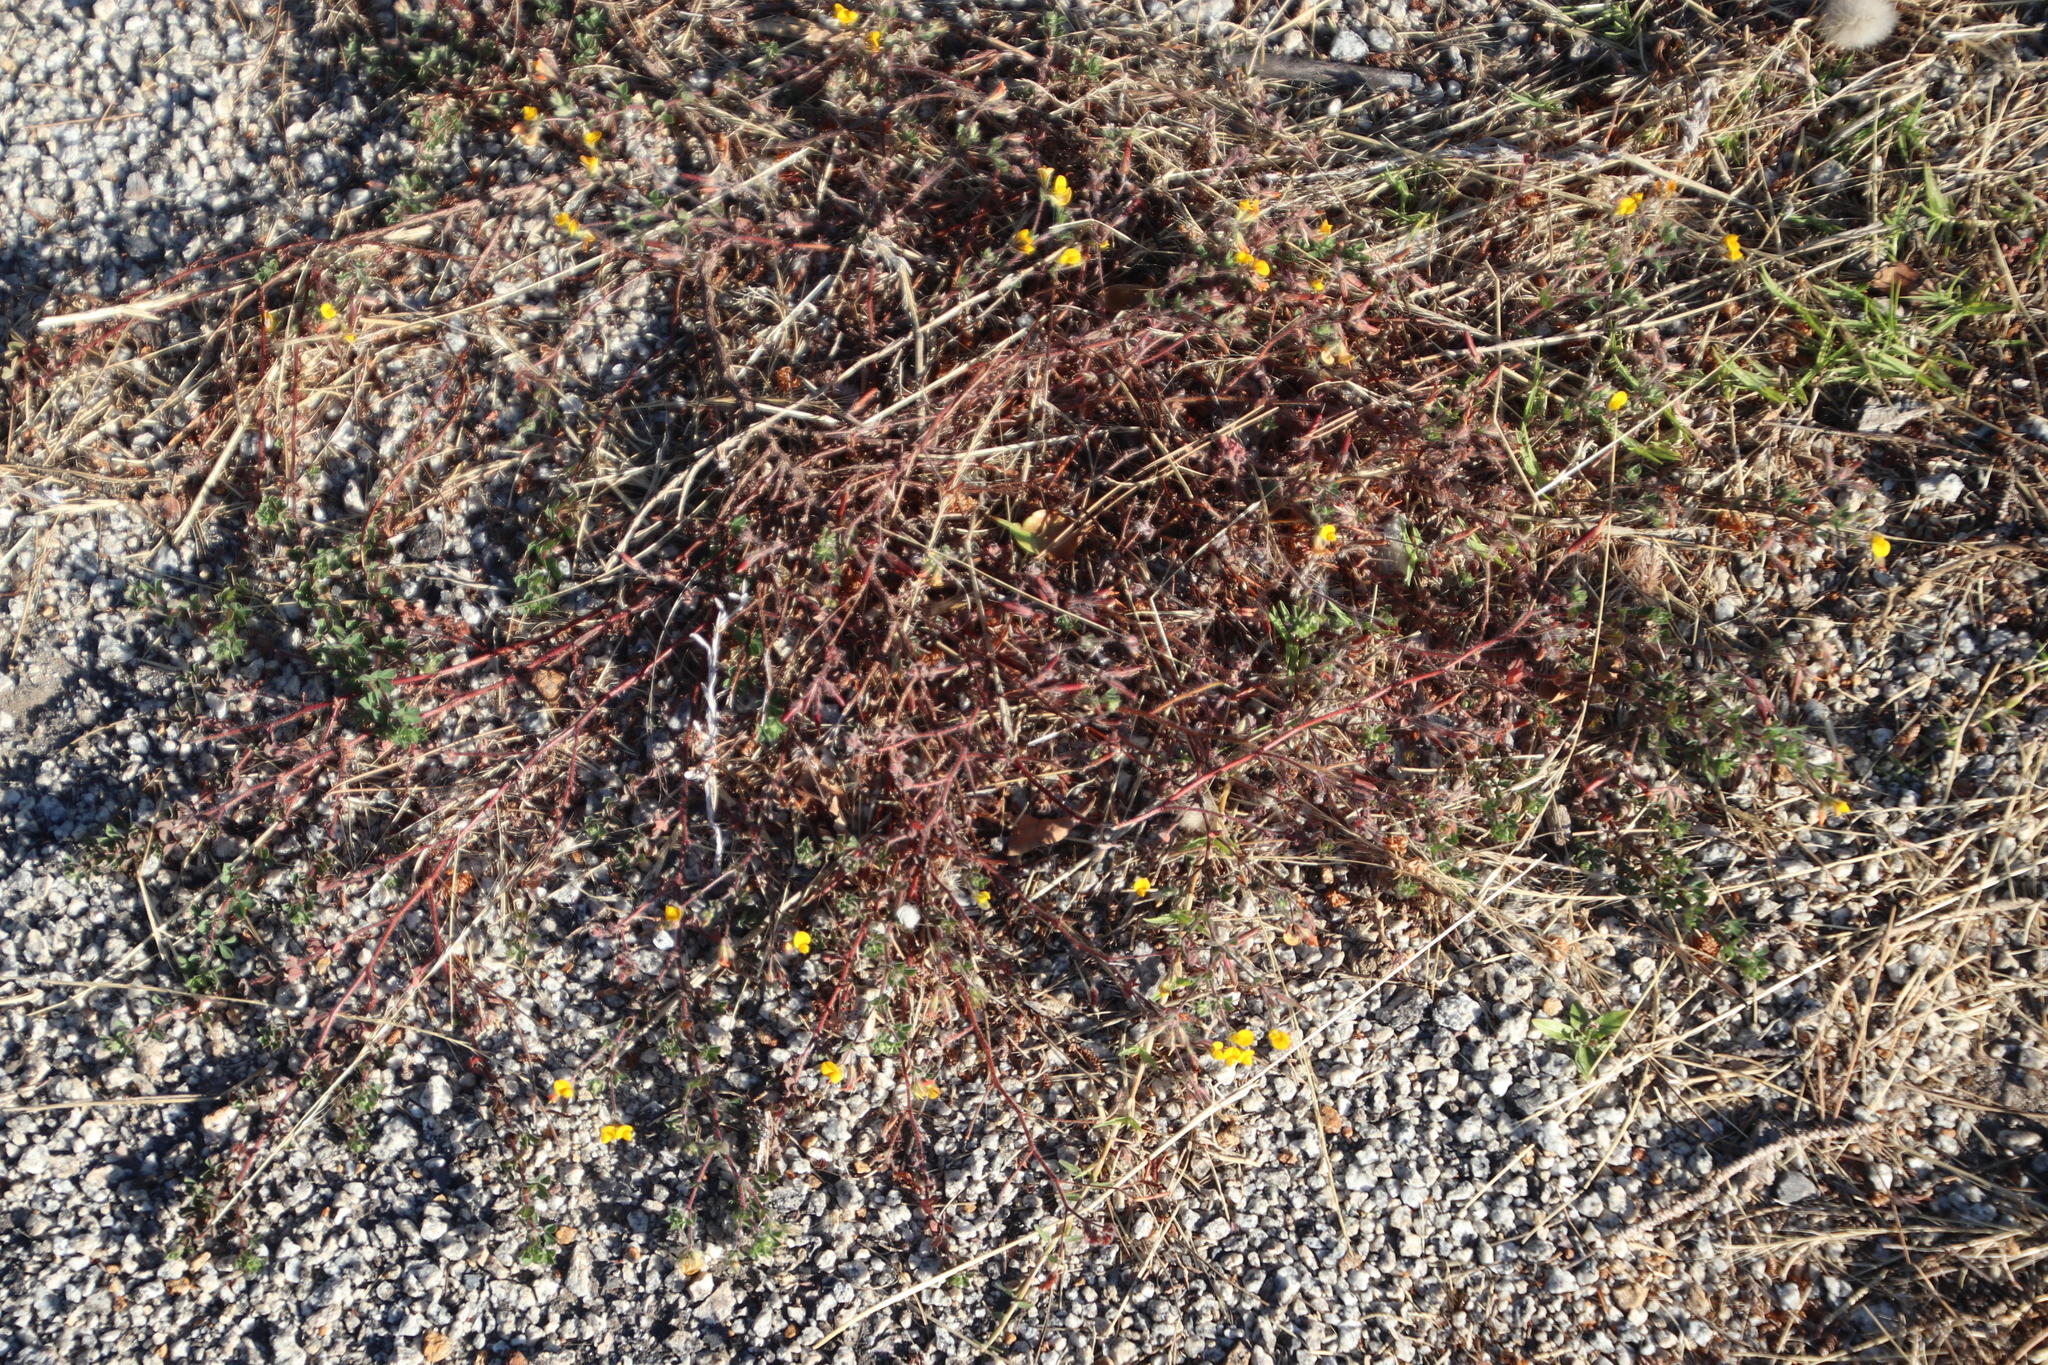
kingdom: Plantae
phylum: Tracheophyta
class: Magnoliopsida
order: Fabales
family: Fabaceae
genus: Lotus
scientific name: Lotus subbiflorus
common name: Hairy bird's-foot trefoil
